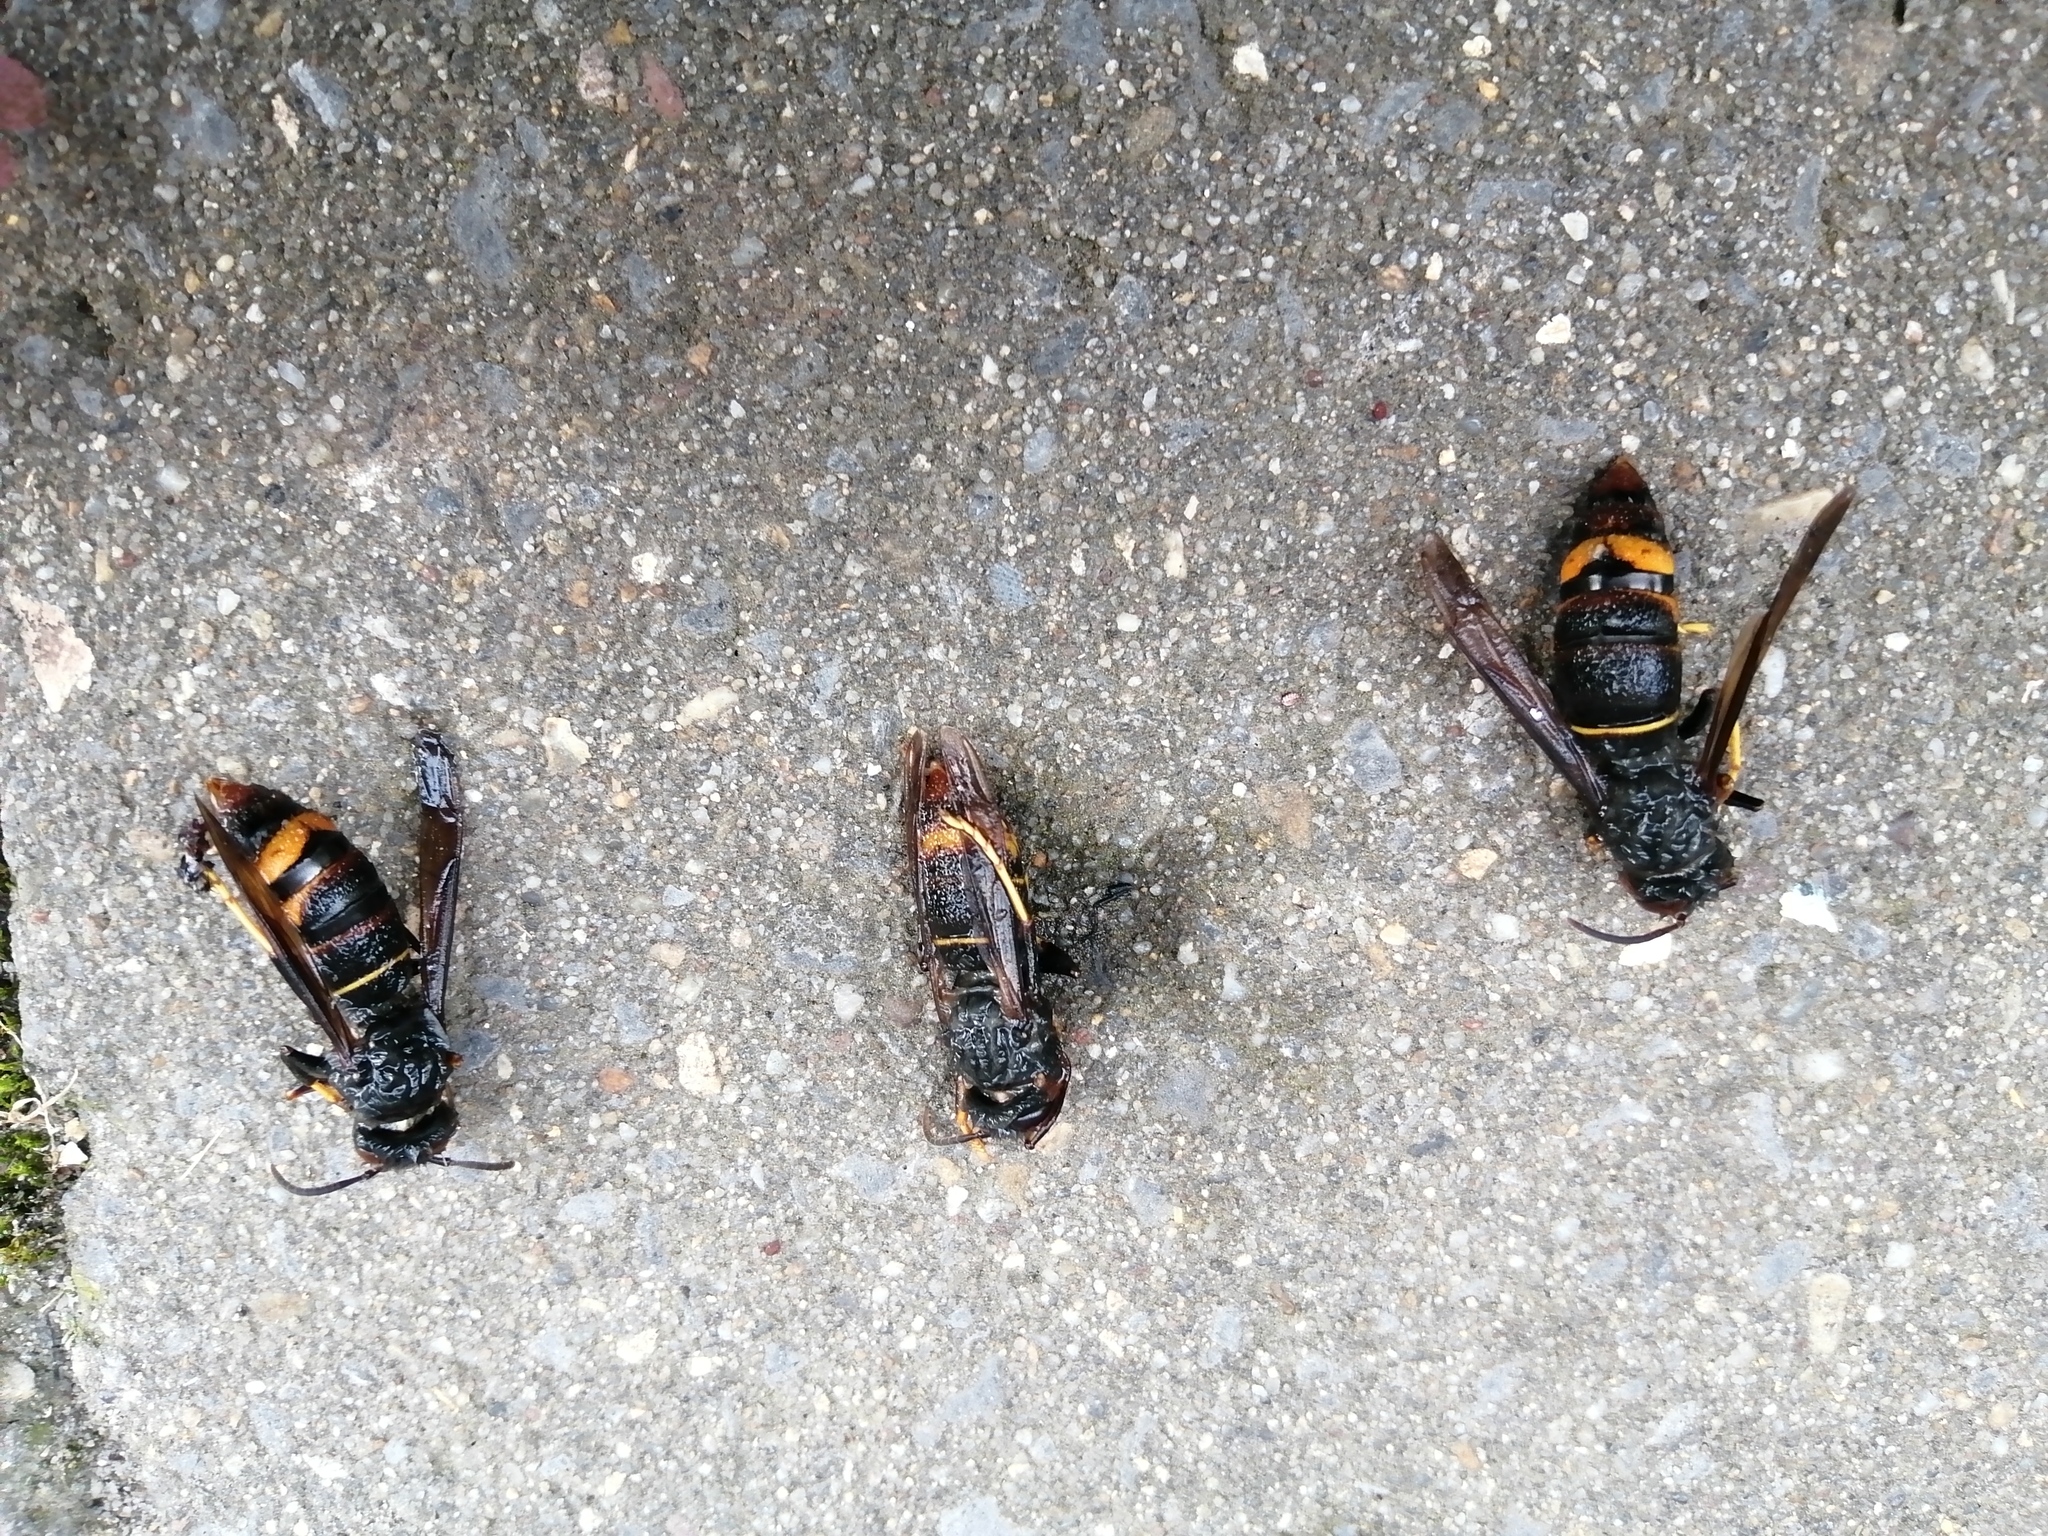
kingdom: Animalia
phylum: Arthropoda
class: Insecta
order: Hymenoptera
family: Vespidae
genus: Vespa
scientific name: Vespa velutina
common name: Asian hornet
